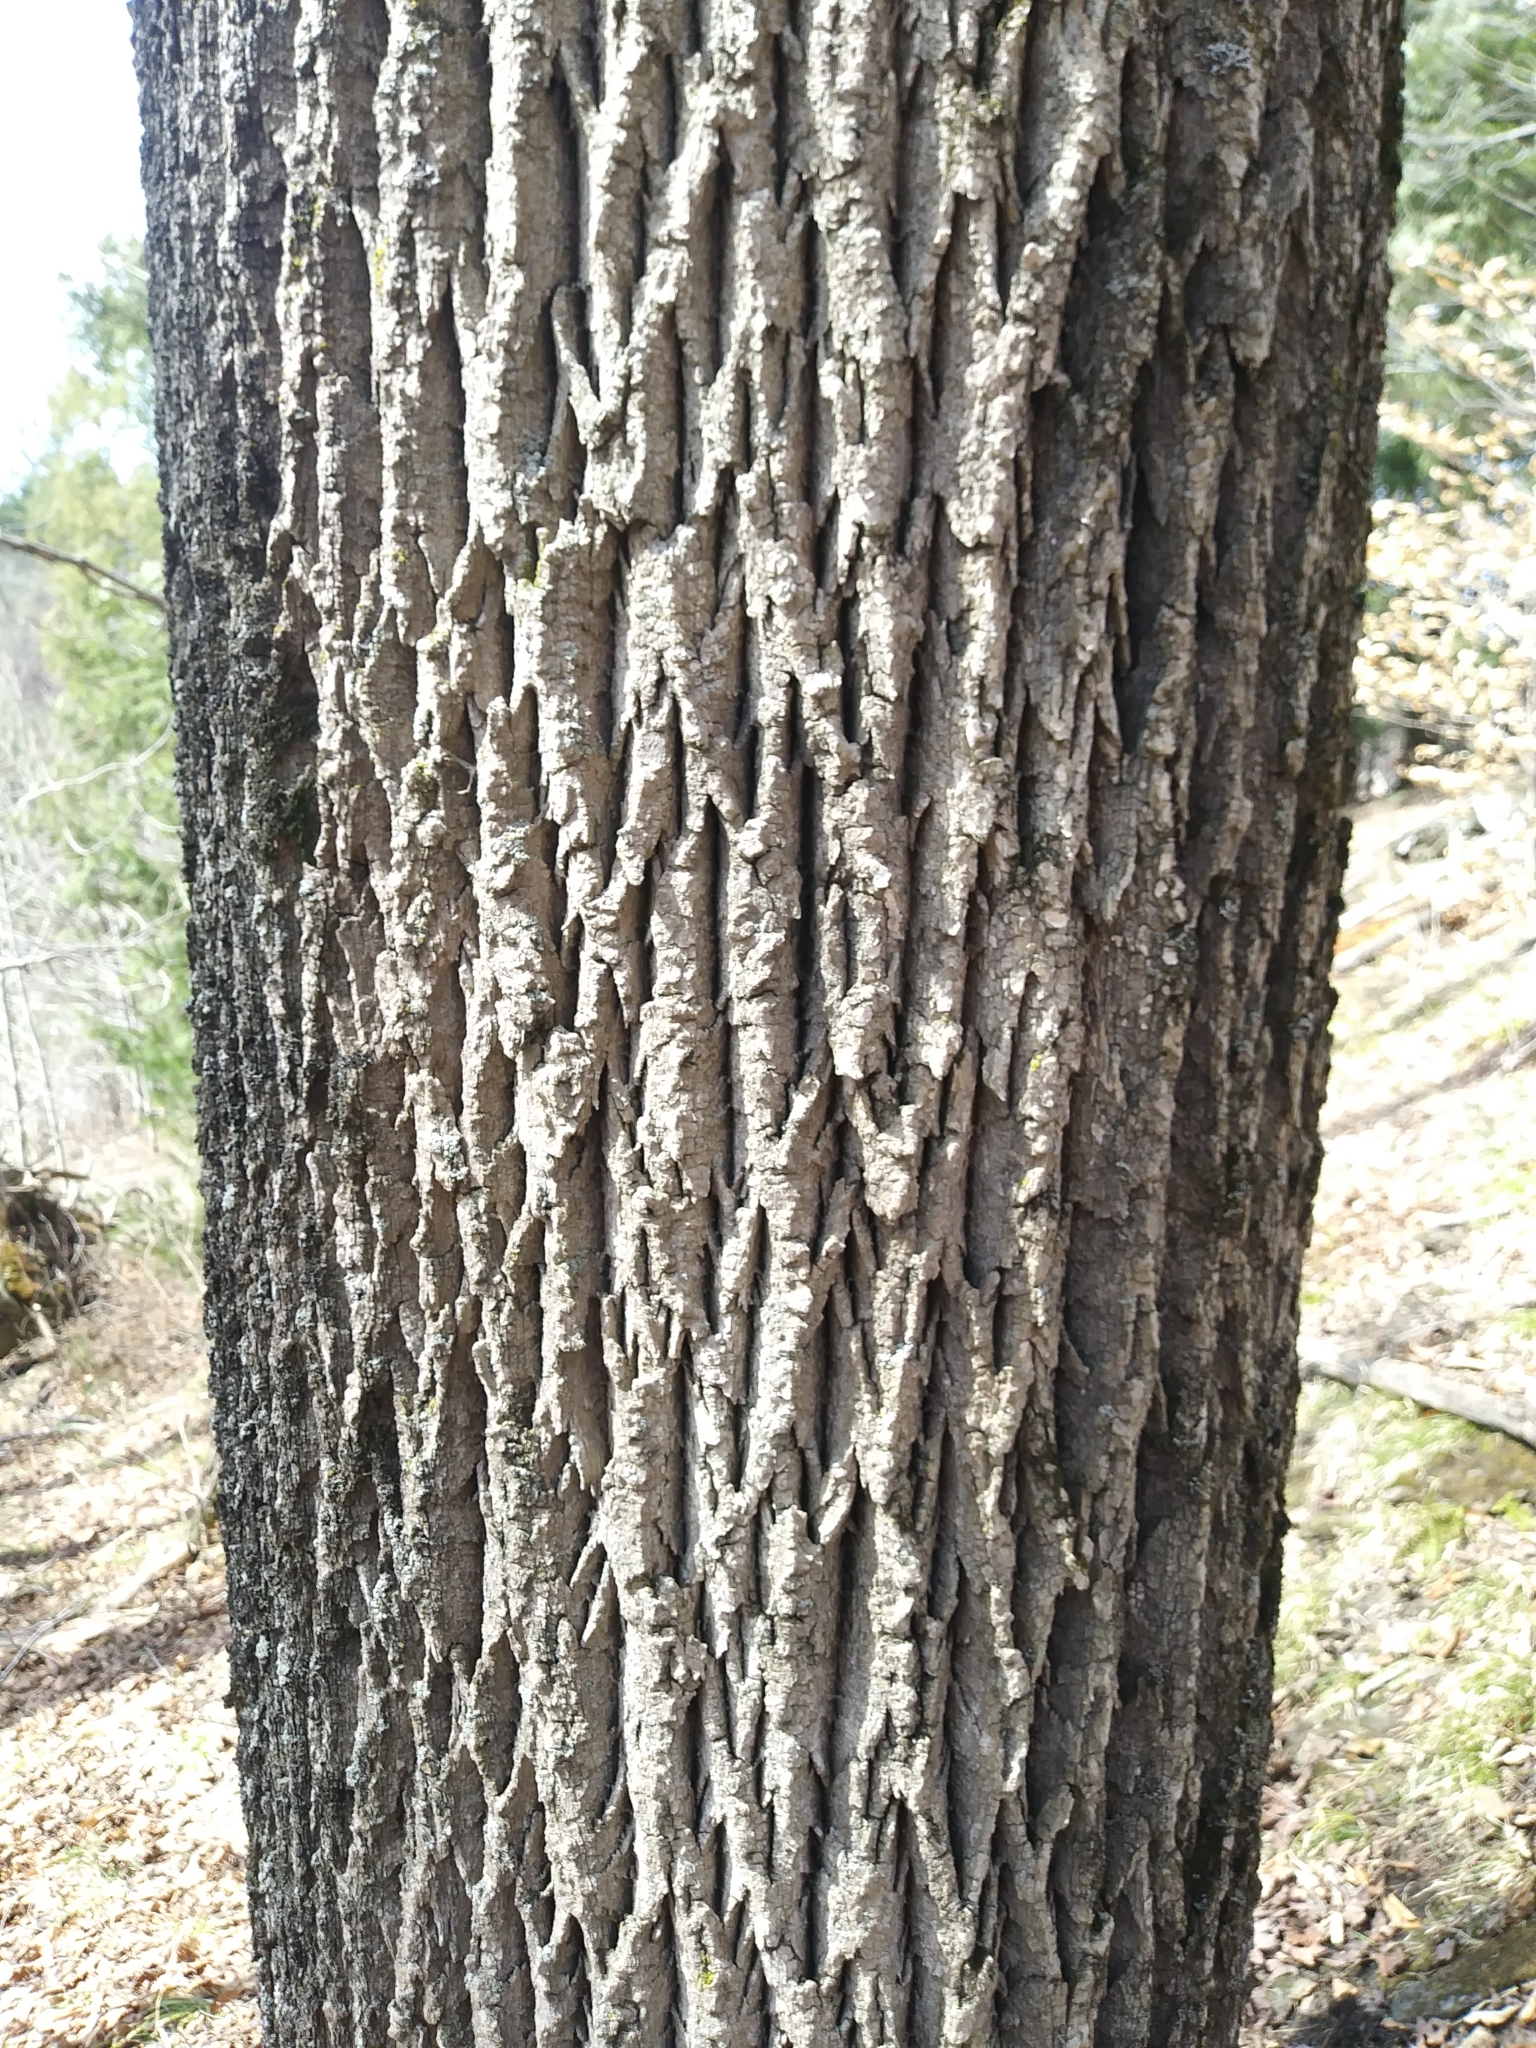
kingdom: Plantae
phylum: Tracheophyta
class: Magnoliopsida
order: Lamiales
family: Oleaceae
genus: Fraxinus
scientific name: Fraxinus americana
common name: White ash
